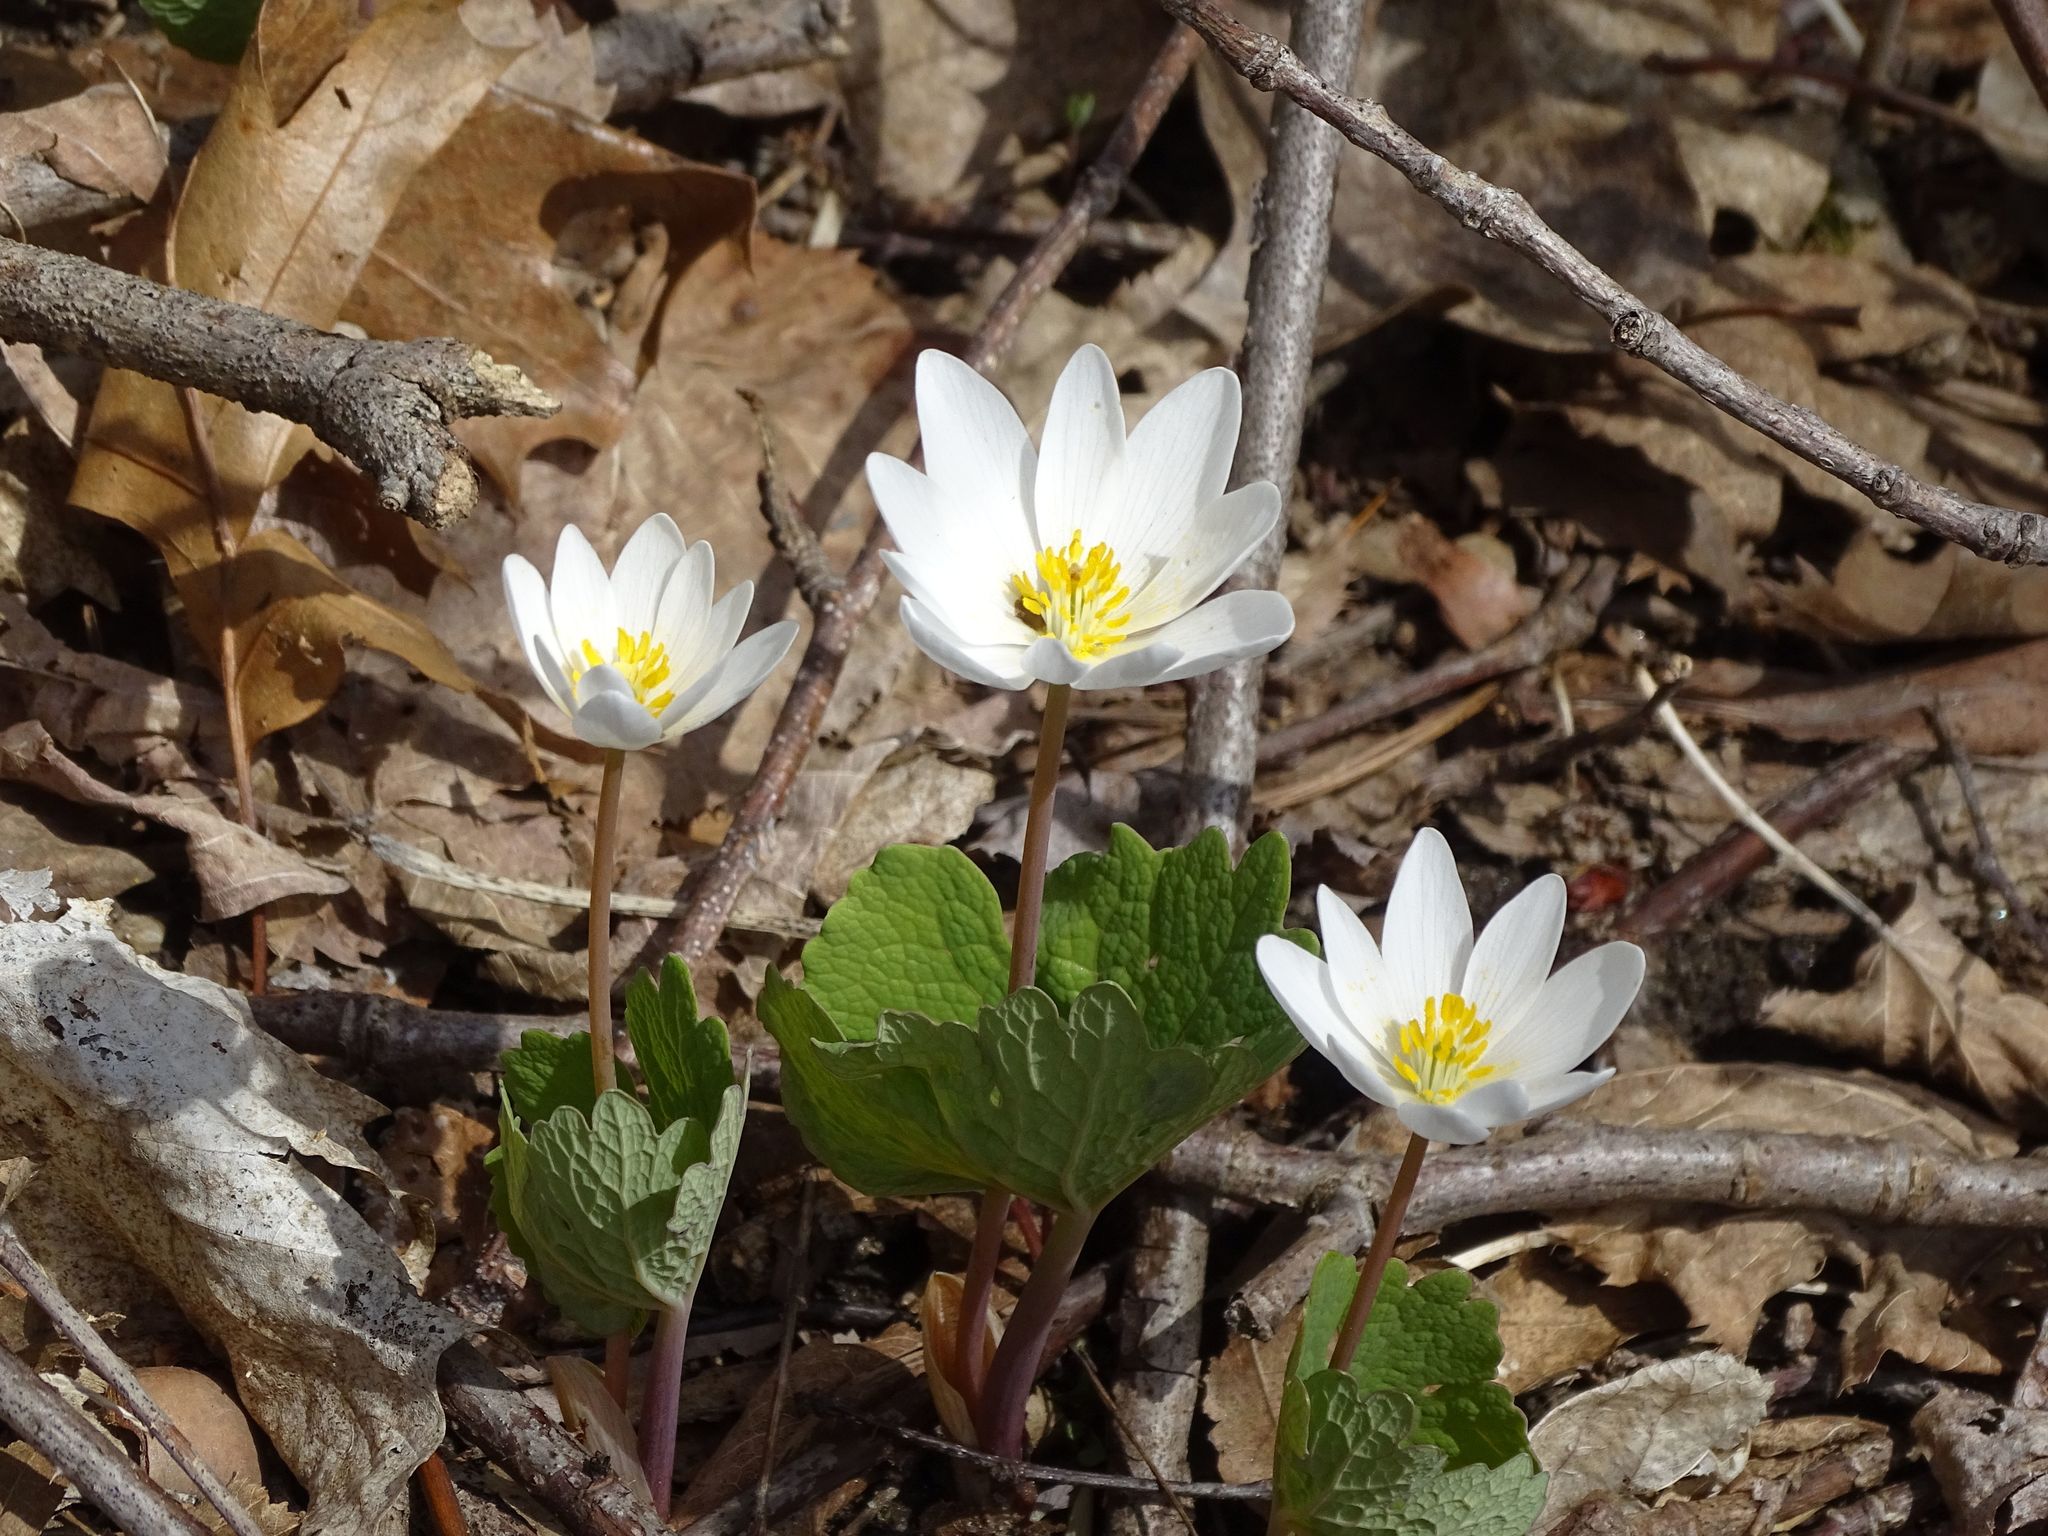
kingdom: Plantae
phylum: Tracheophyta
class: Magnoliopsida
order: Ranunculales
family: Papaveraceae
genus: Sanguinaria
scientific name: Sanguinaria canadensis
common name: Bloodroot
